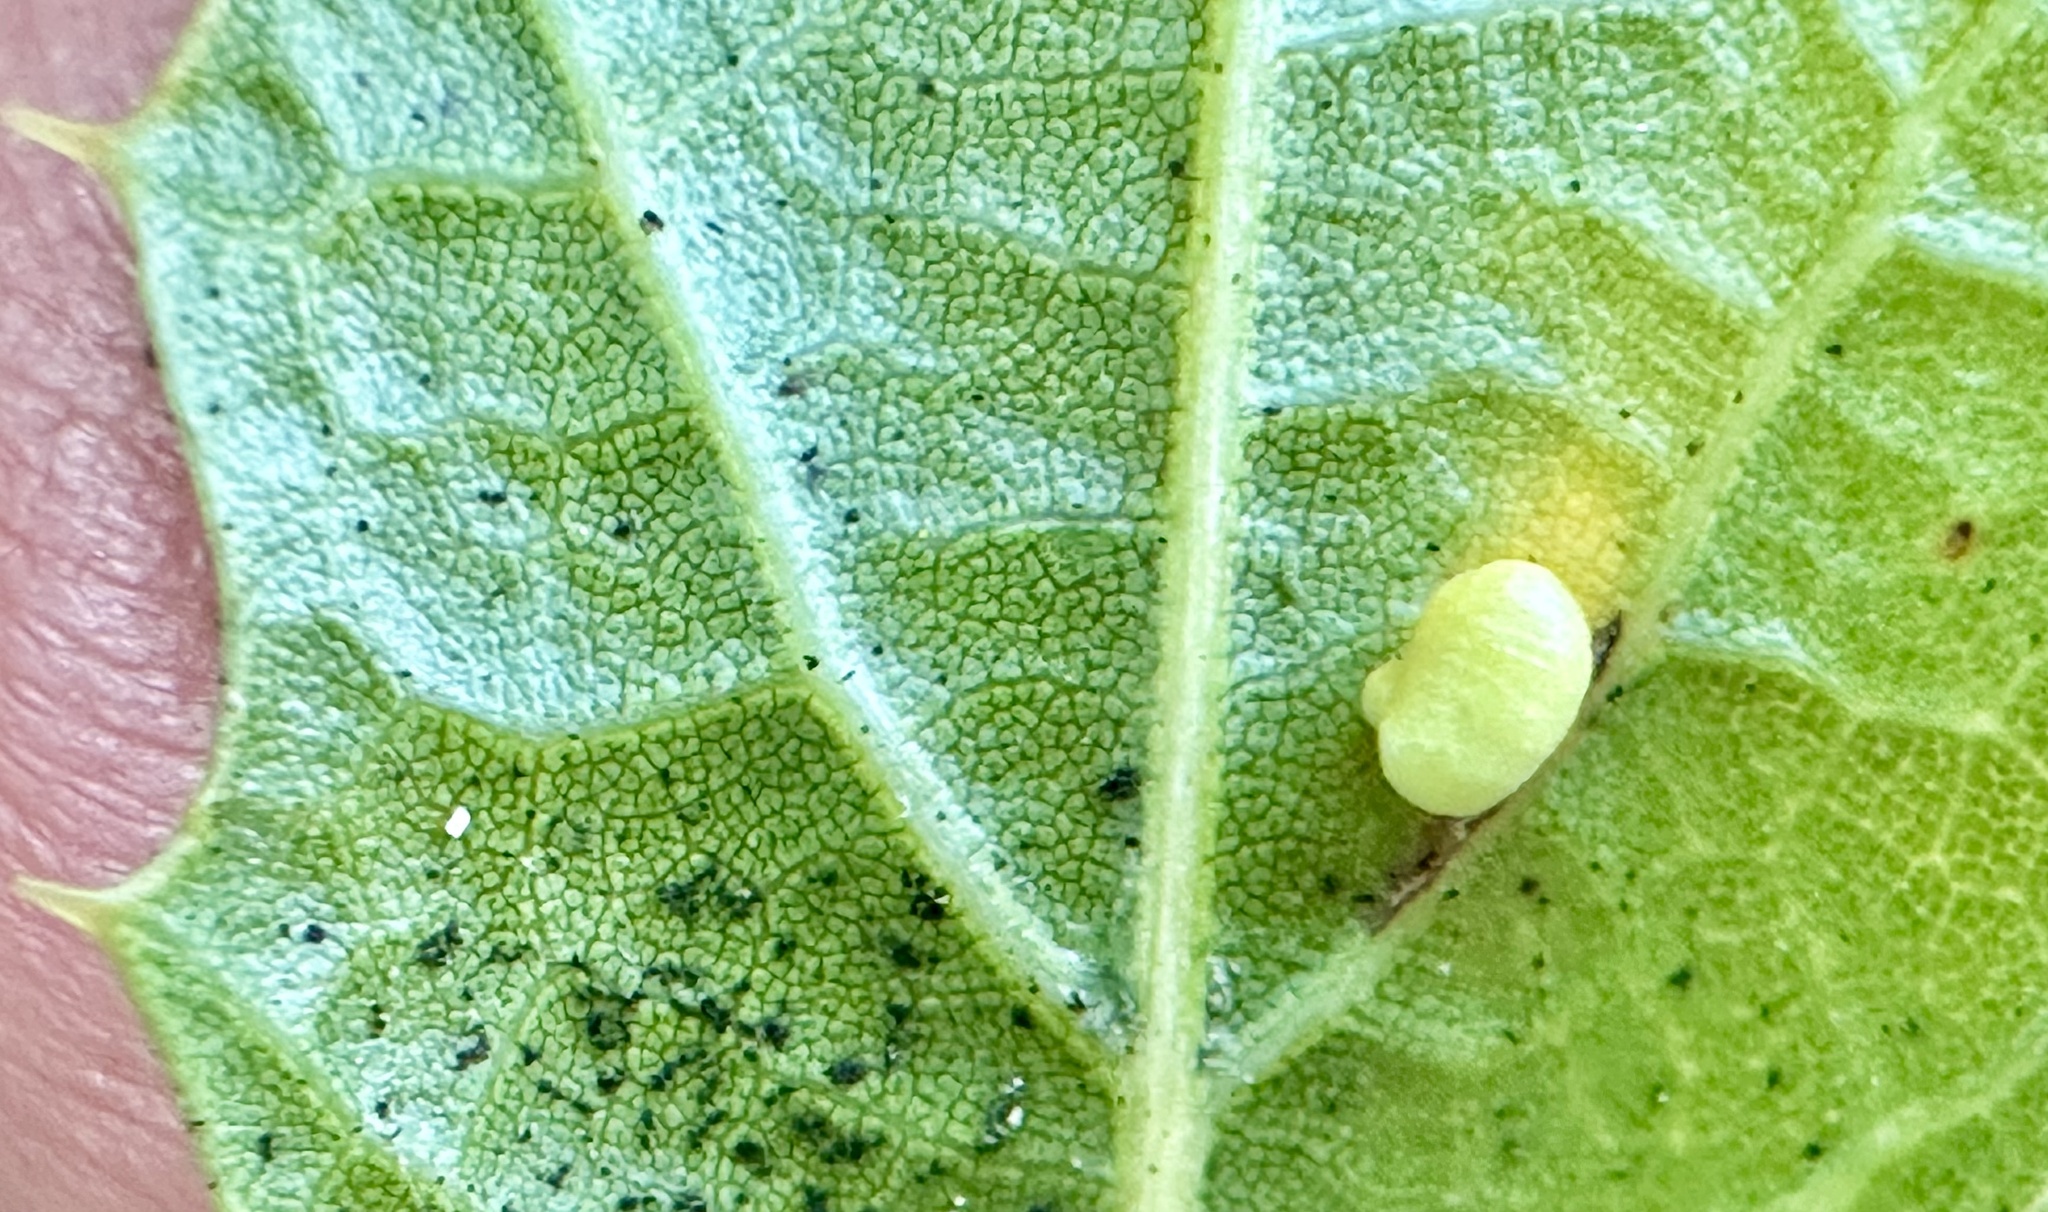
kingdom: Animalia
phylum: Arthropoda
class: Insecta
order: Hymenoptera
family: Cynipidae
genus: Dryocosmus
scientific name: Dryocosmus
